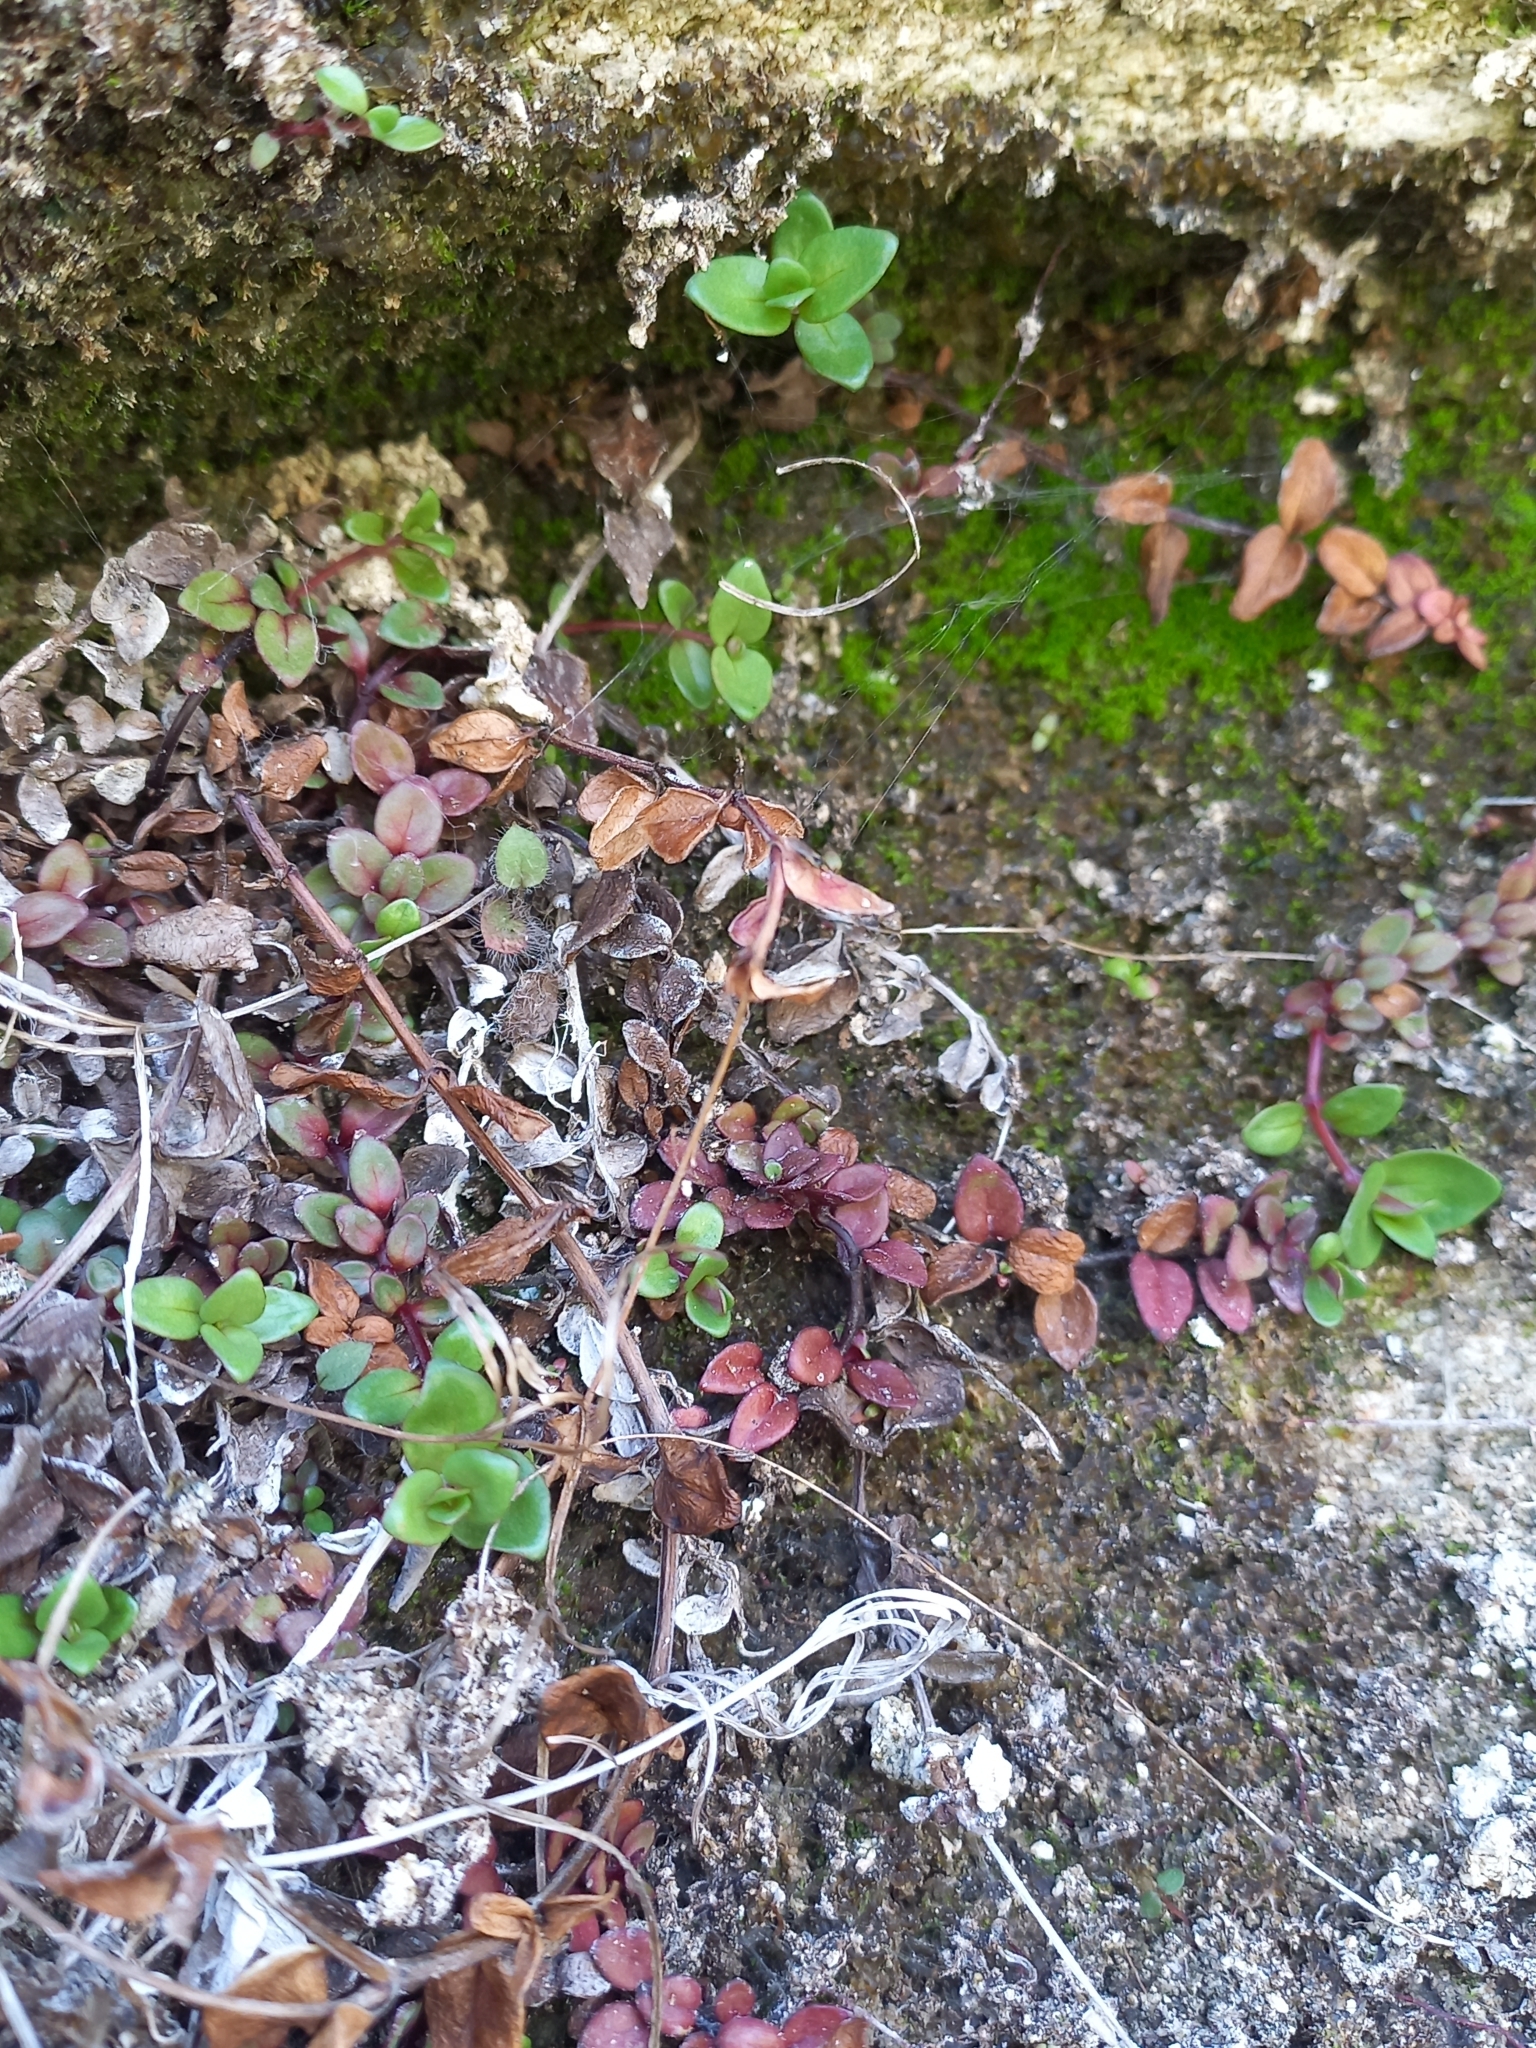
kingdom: Plantae
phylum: Tracheophyta
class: Magnoliopsida
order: Myrtales
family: Onagraceae
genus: Epilobium
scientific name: Epilobium gracilipes
